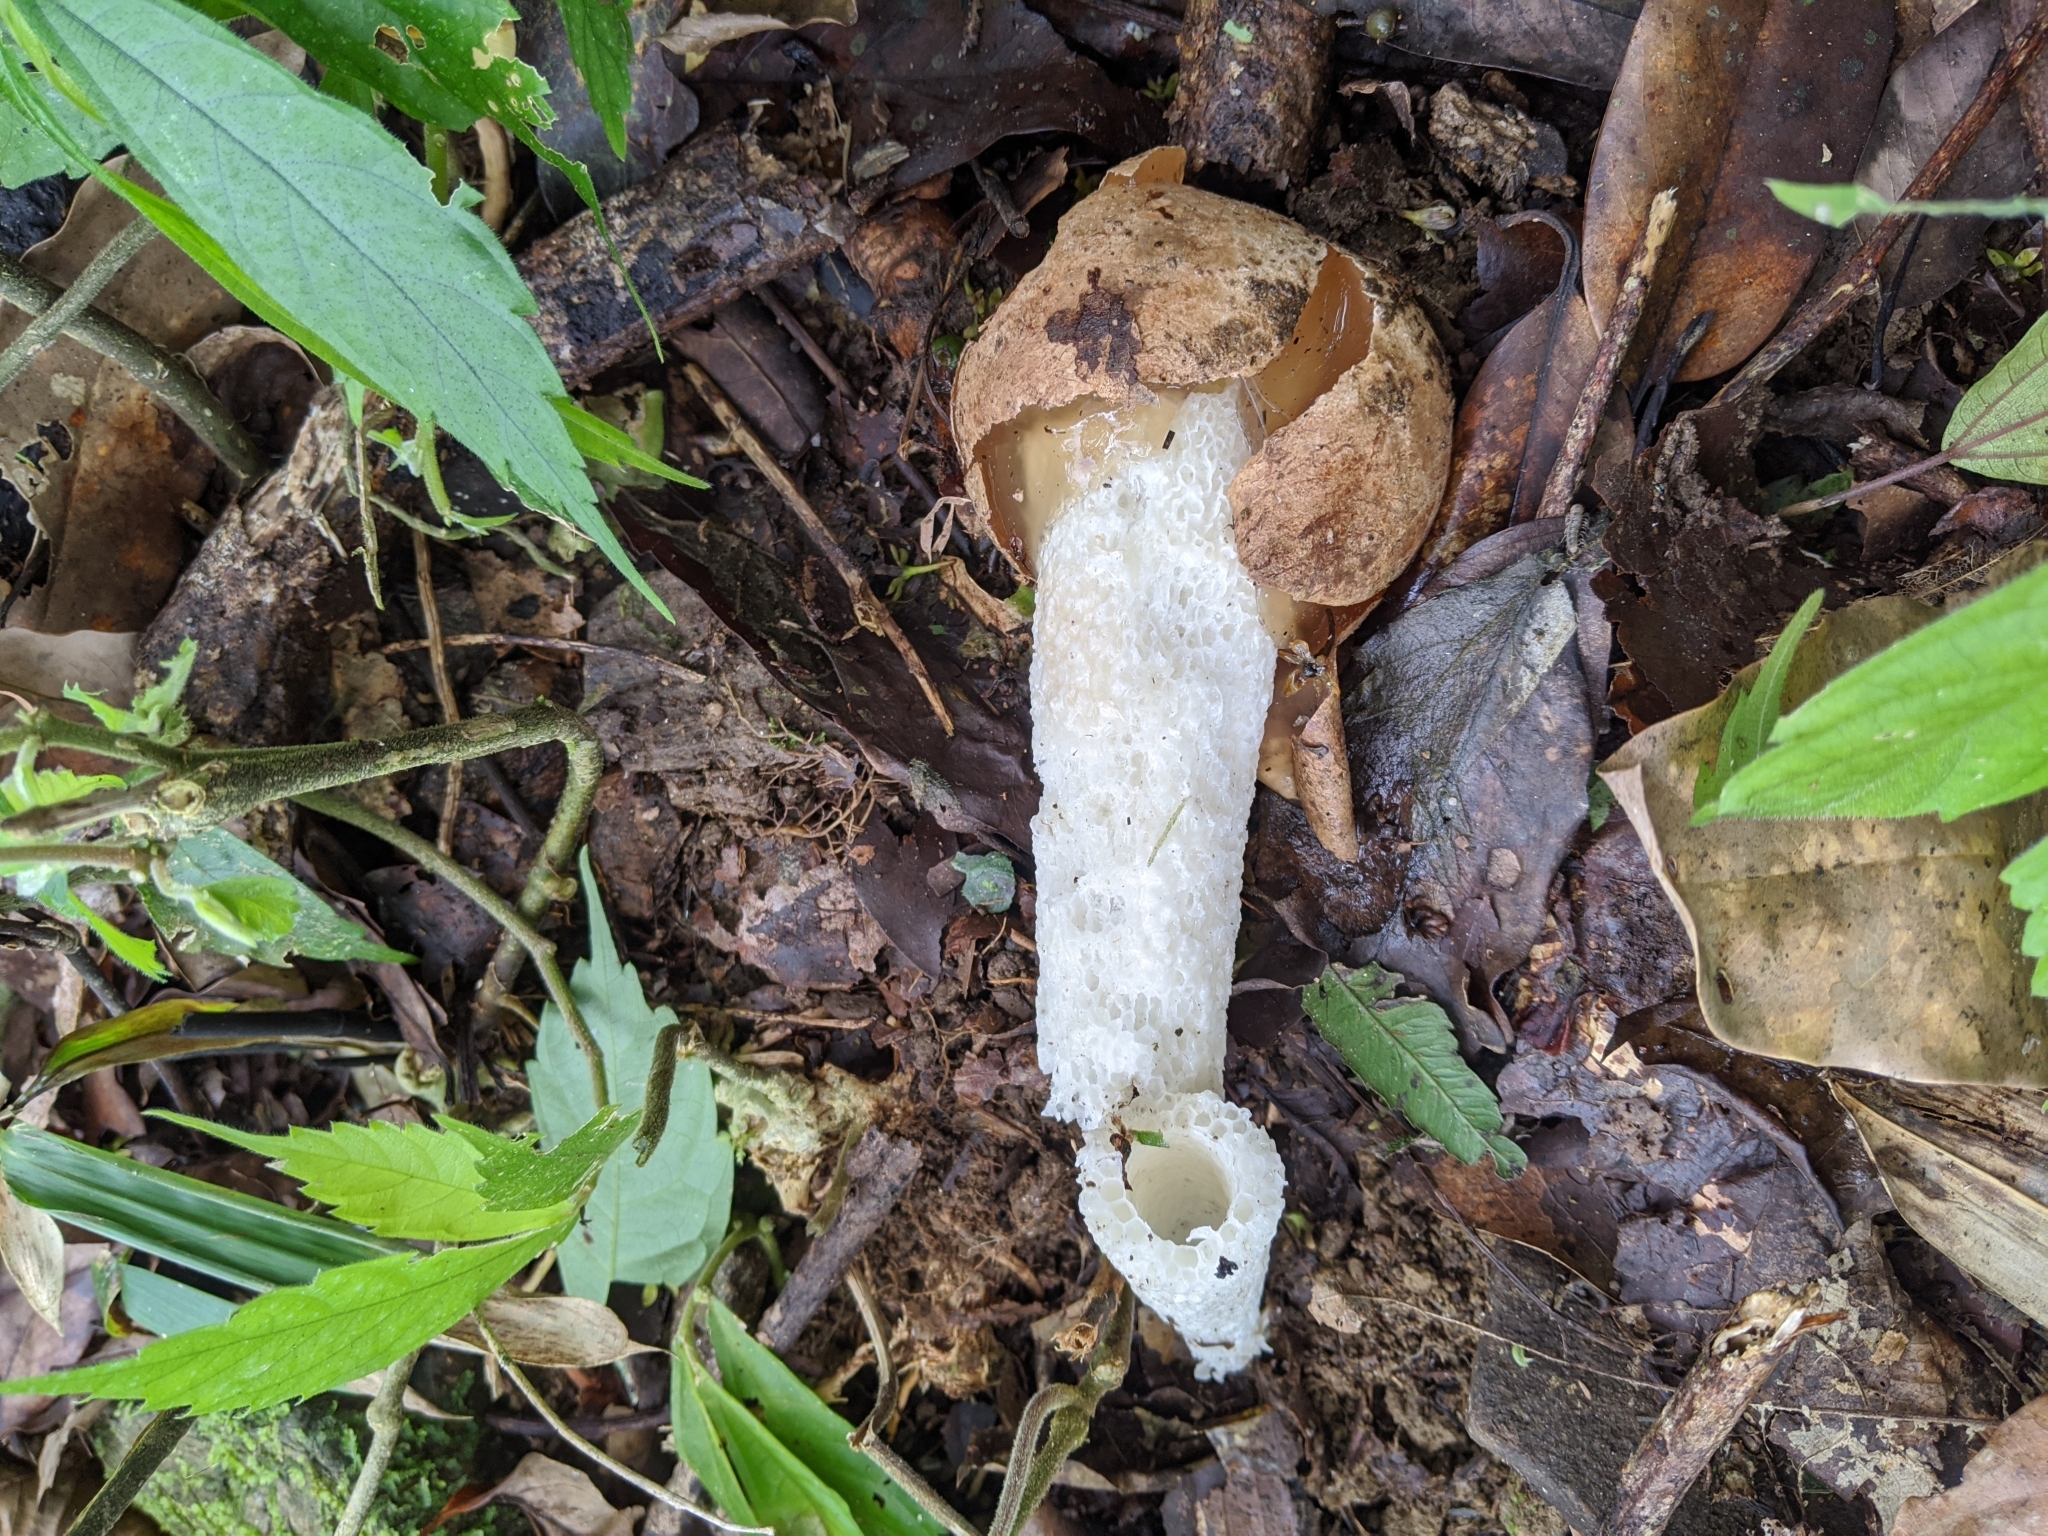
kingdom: Fungi
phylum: Basidiomycota
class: Agaricomycetes
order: Phallales
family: Phallaceae
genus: Phallus
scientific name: Phallus
